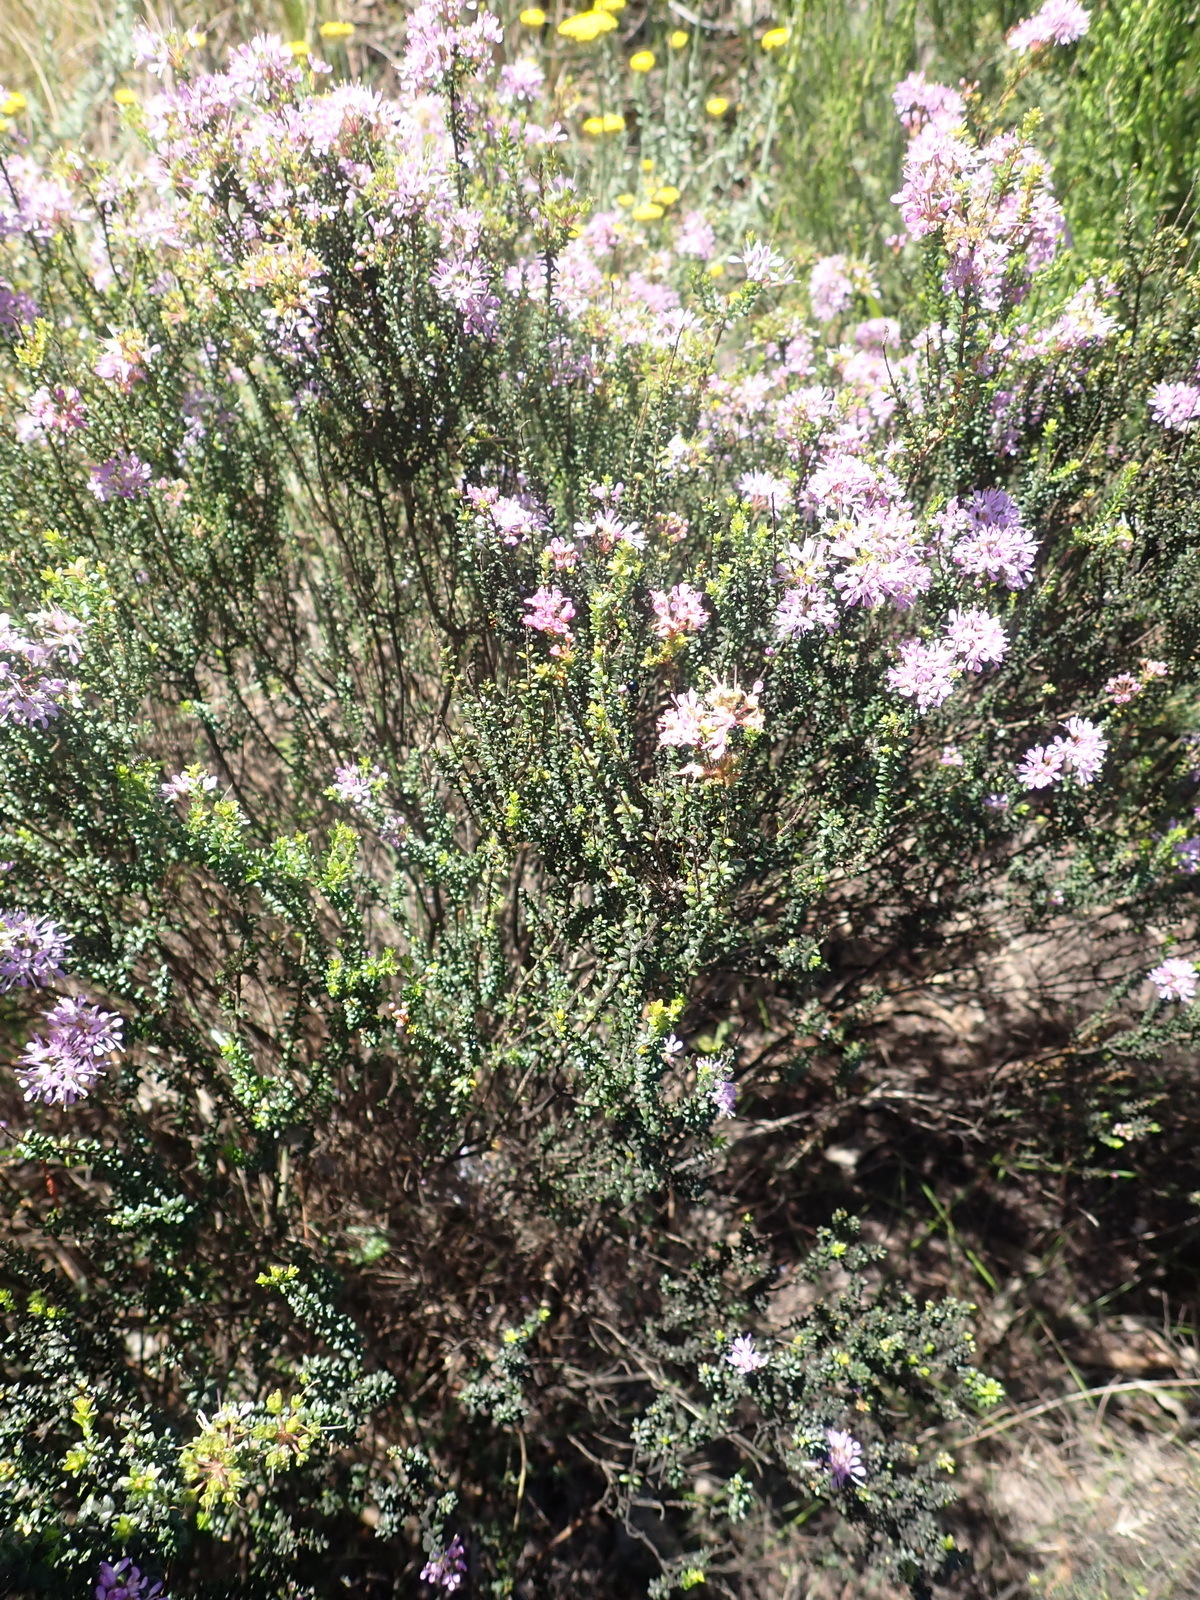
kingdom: Plantae
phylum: Tracheophyta
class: Magnoliopsida
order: Sapindales
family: Rutaceae
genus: Agathosma
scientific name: Agathosma capensis
